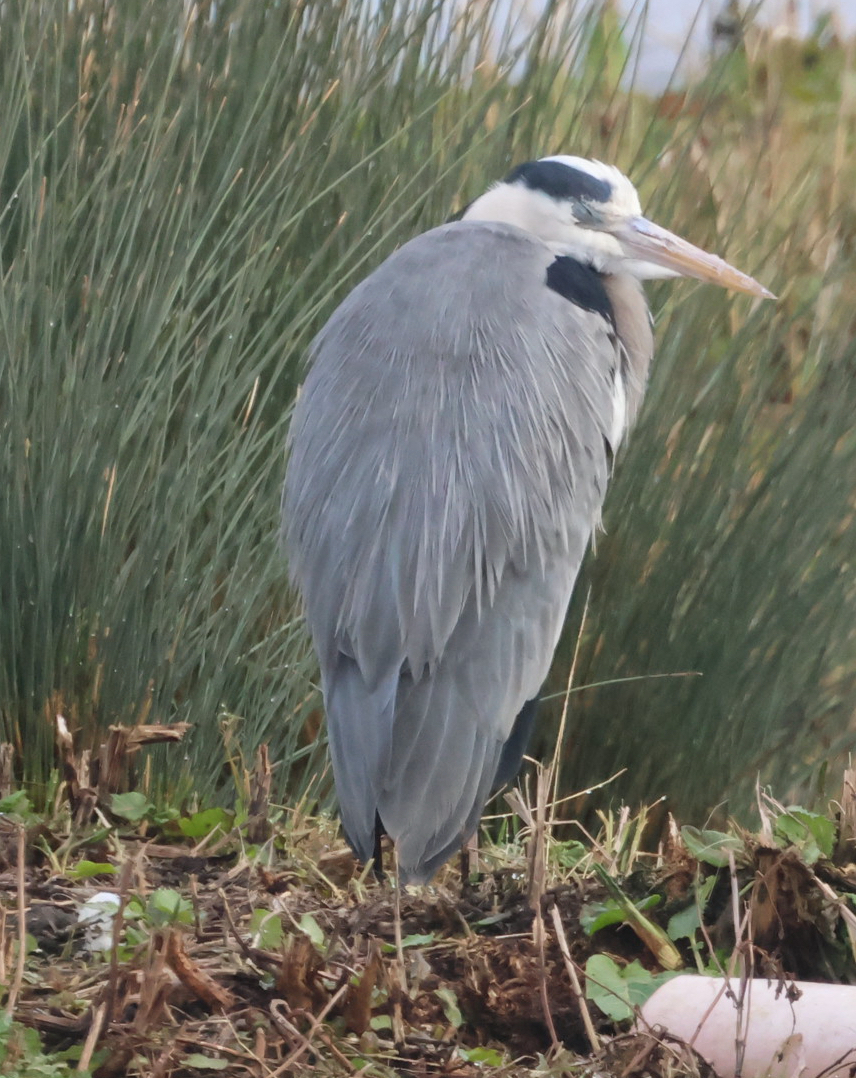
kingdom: Animalia
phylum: Chordata
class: Aves
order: Pelecaniformes
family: Ardeidae
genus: Ardea
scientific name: Ardea cinerea
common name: Grey heron
